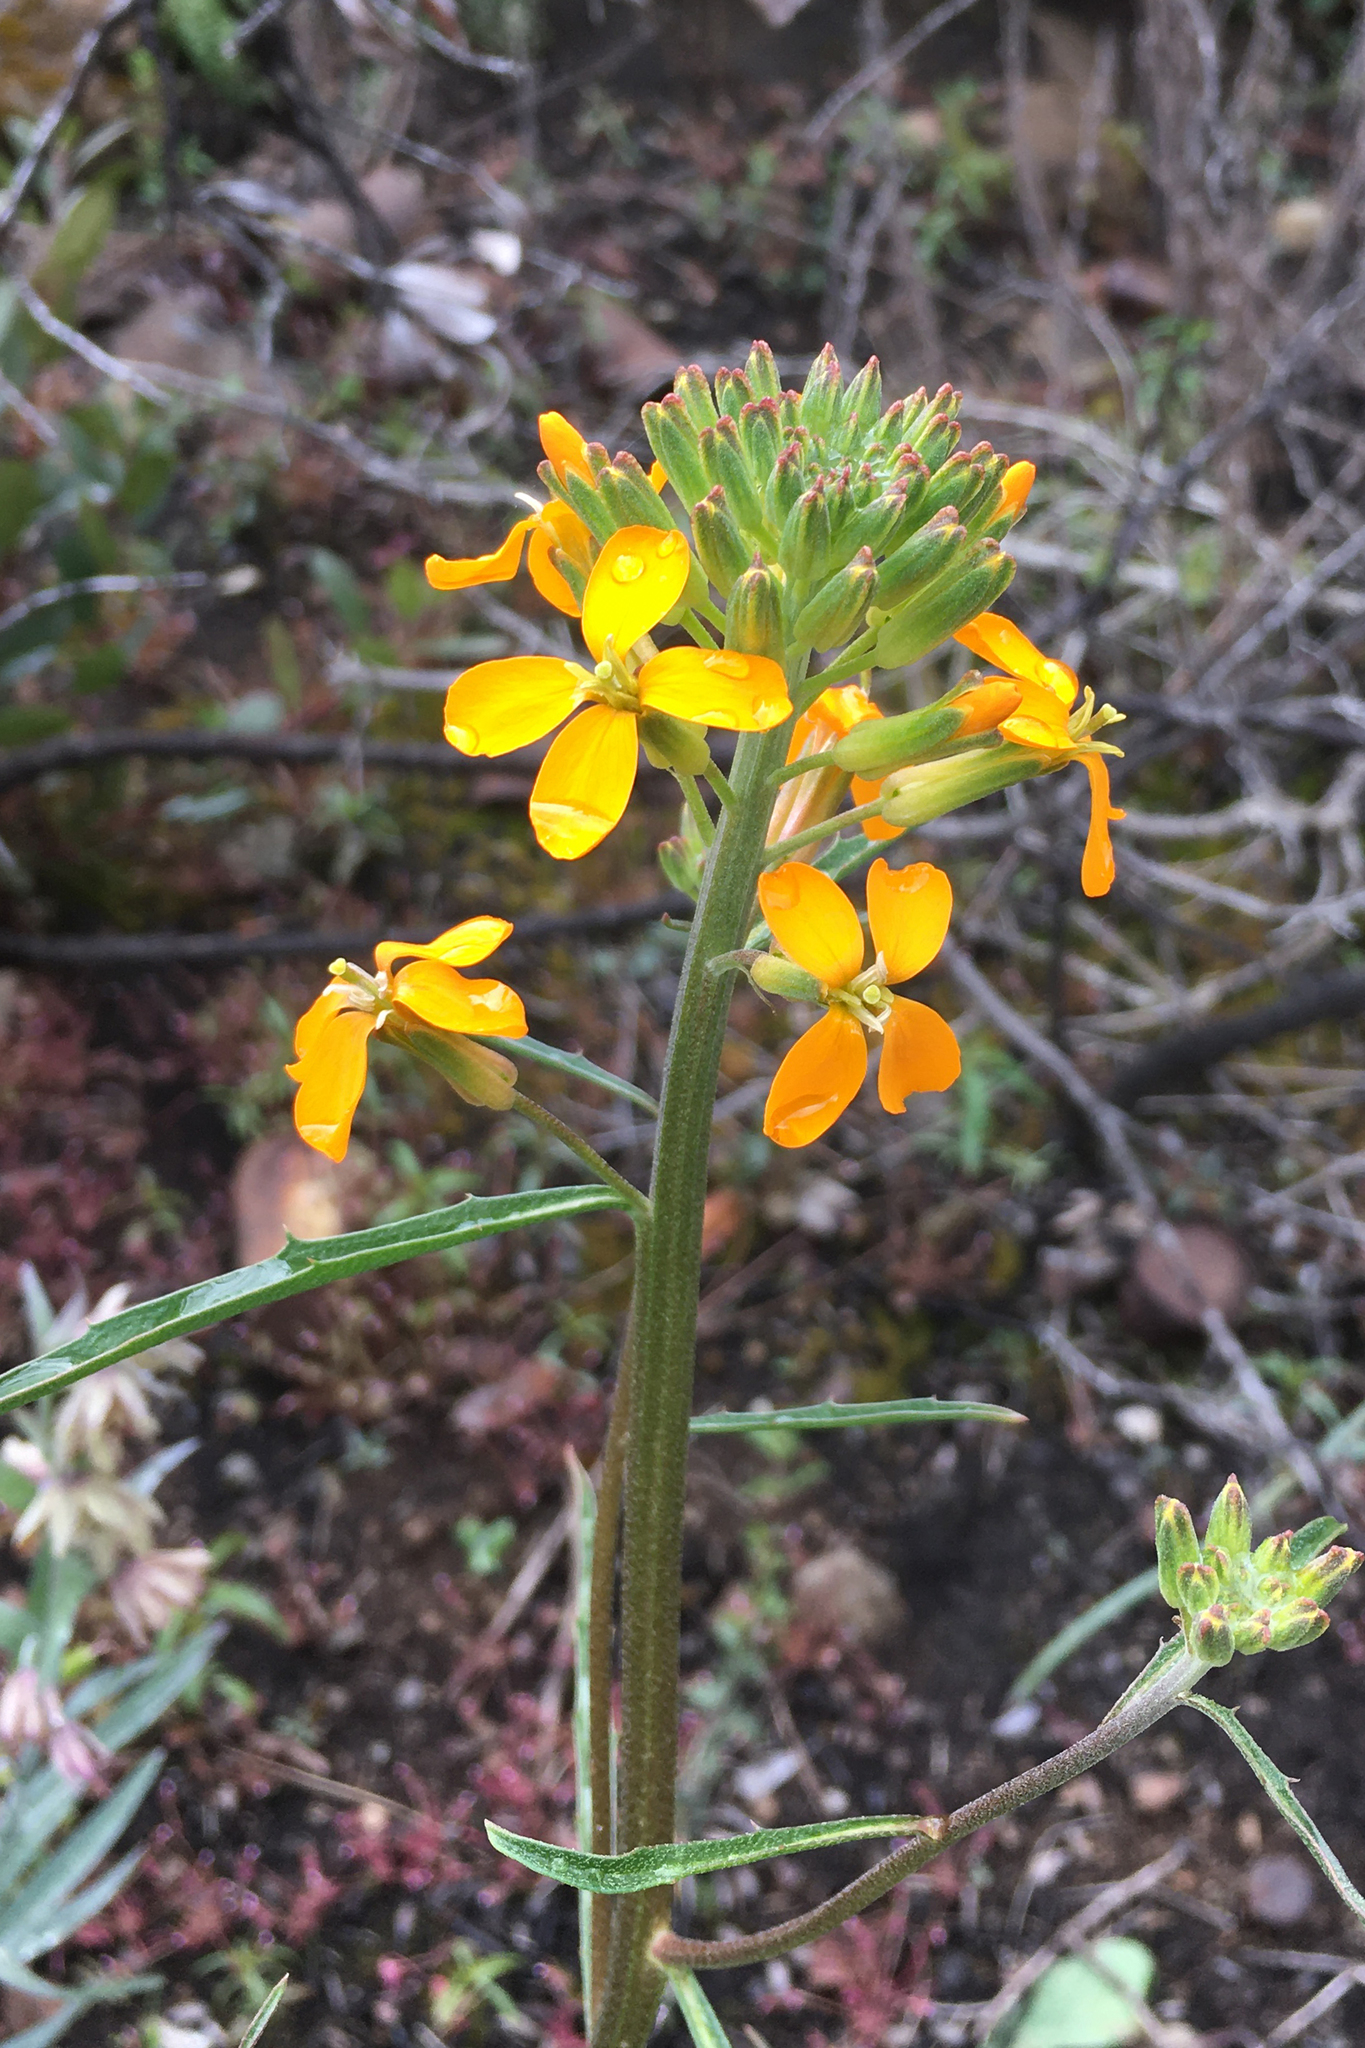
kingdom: Plantae
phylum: Tracheophyta
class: Magnoliopsida
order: Brassicales
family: Brassicaceae
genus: Erysimum
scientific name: Erysimum capitatum
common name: Western wallflower
